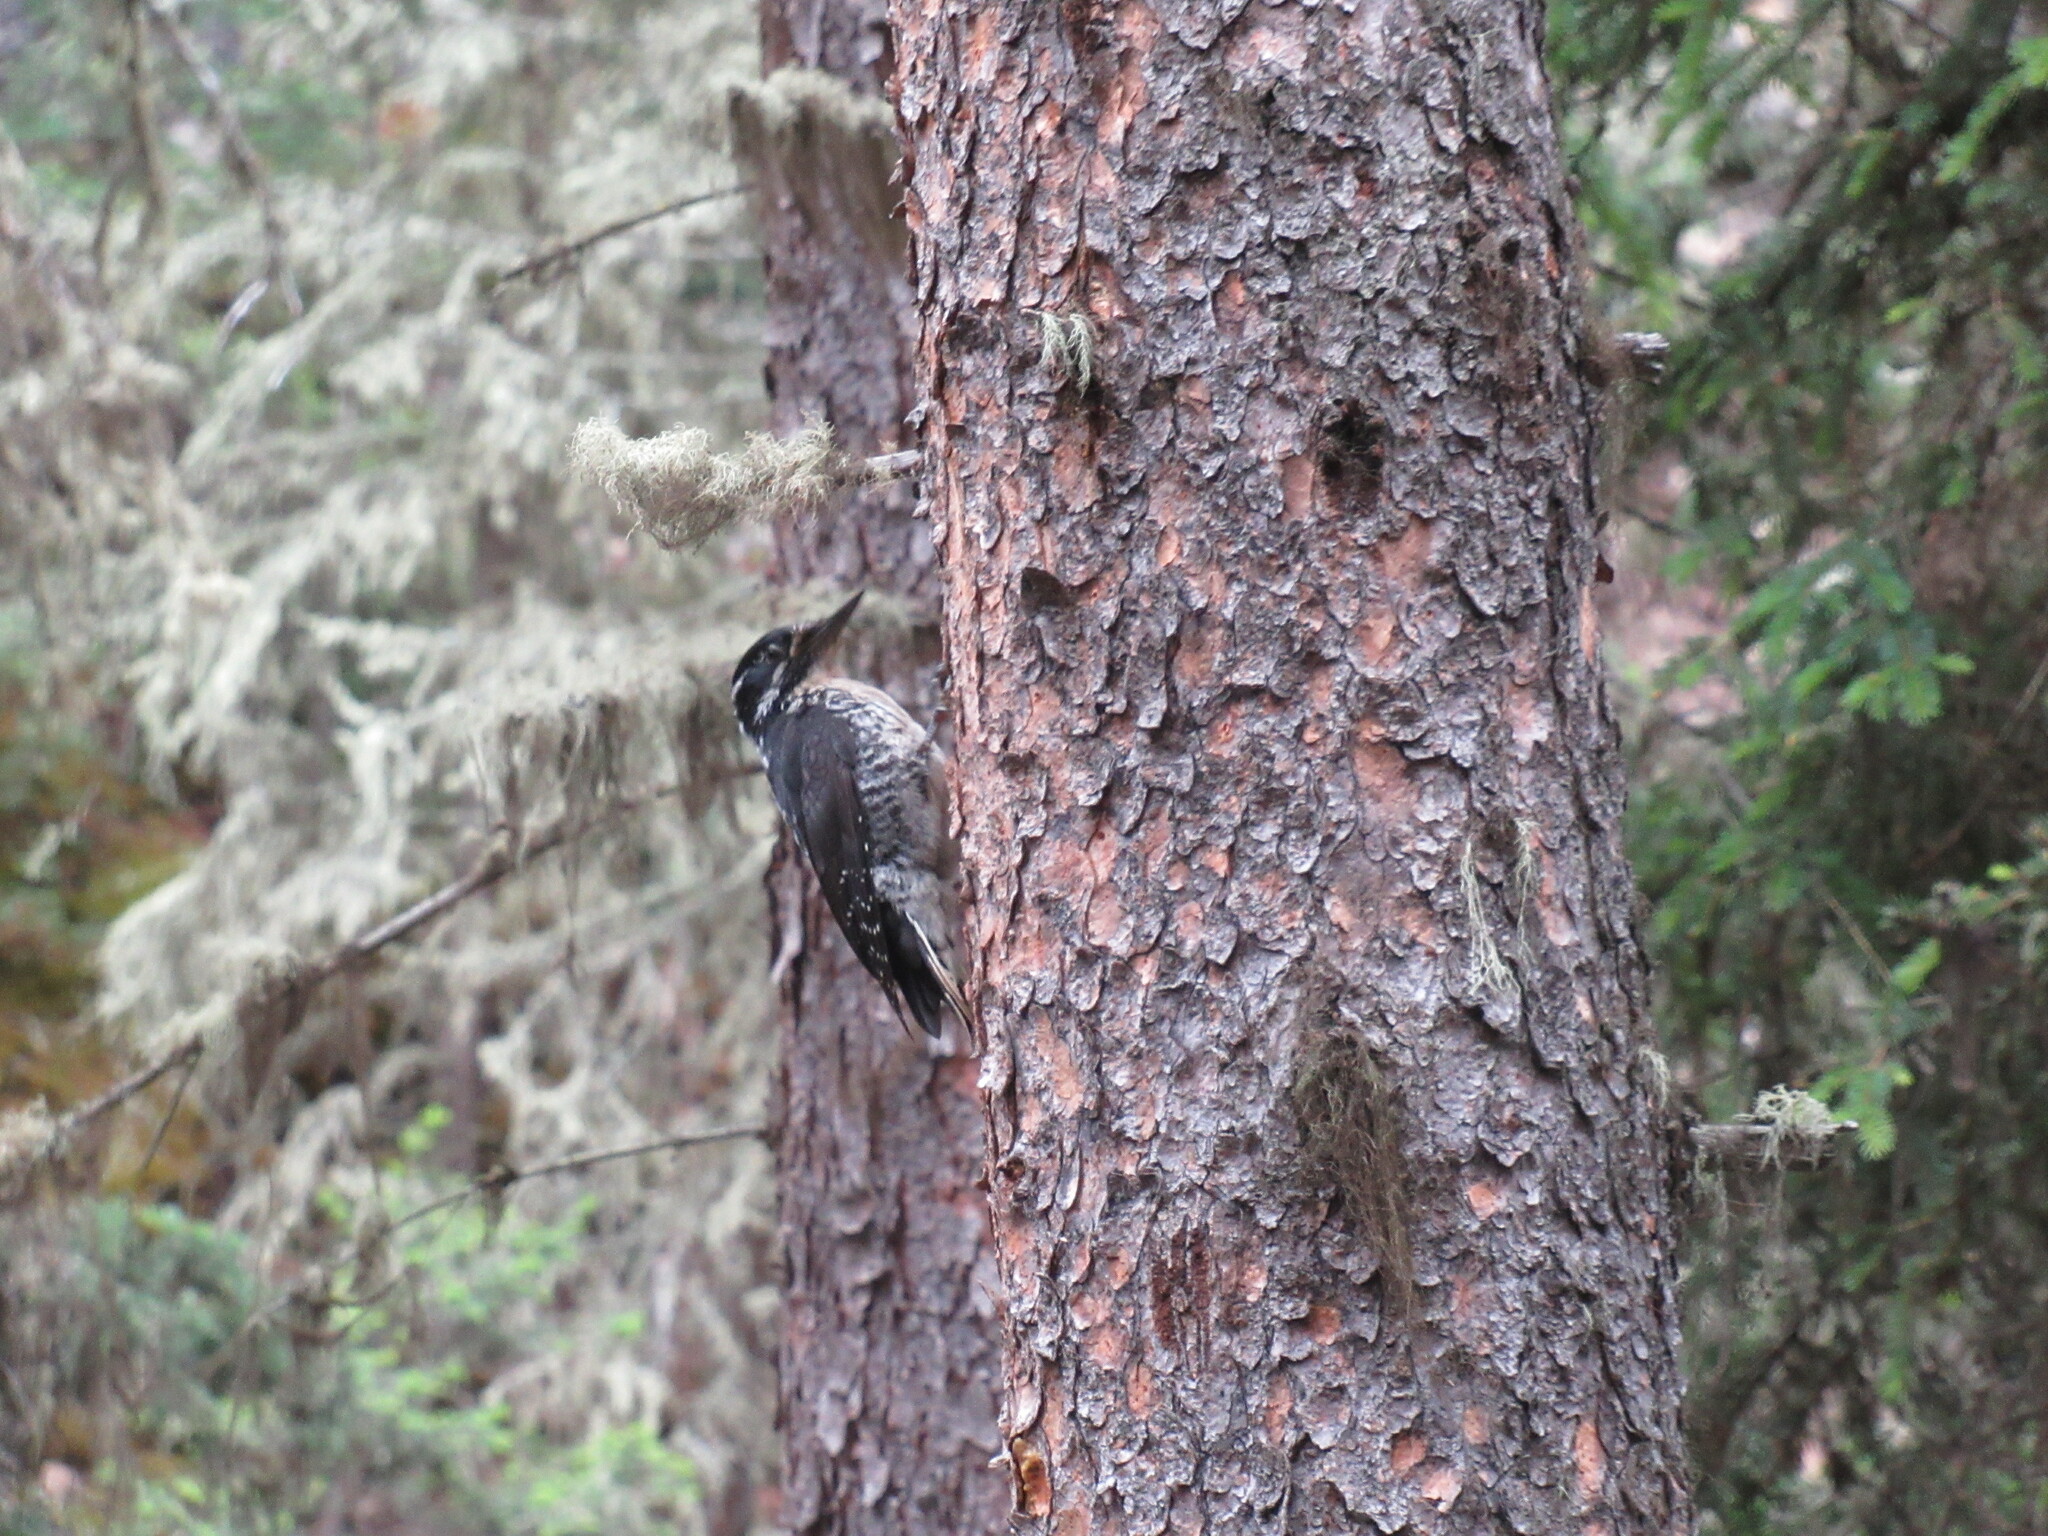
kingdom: Animalia
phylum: Chordata
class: Aves
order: Piciformes
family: Picidae
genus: Picoides
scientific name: Picoides dorsalis
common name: American three-toed woodpecker
